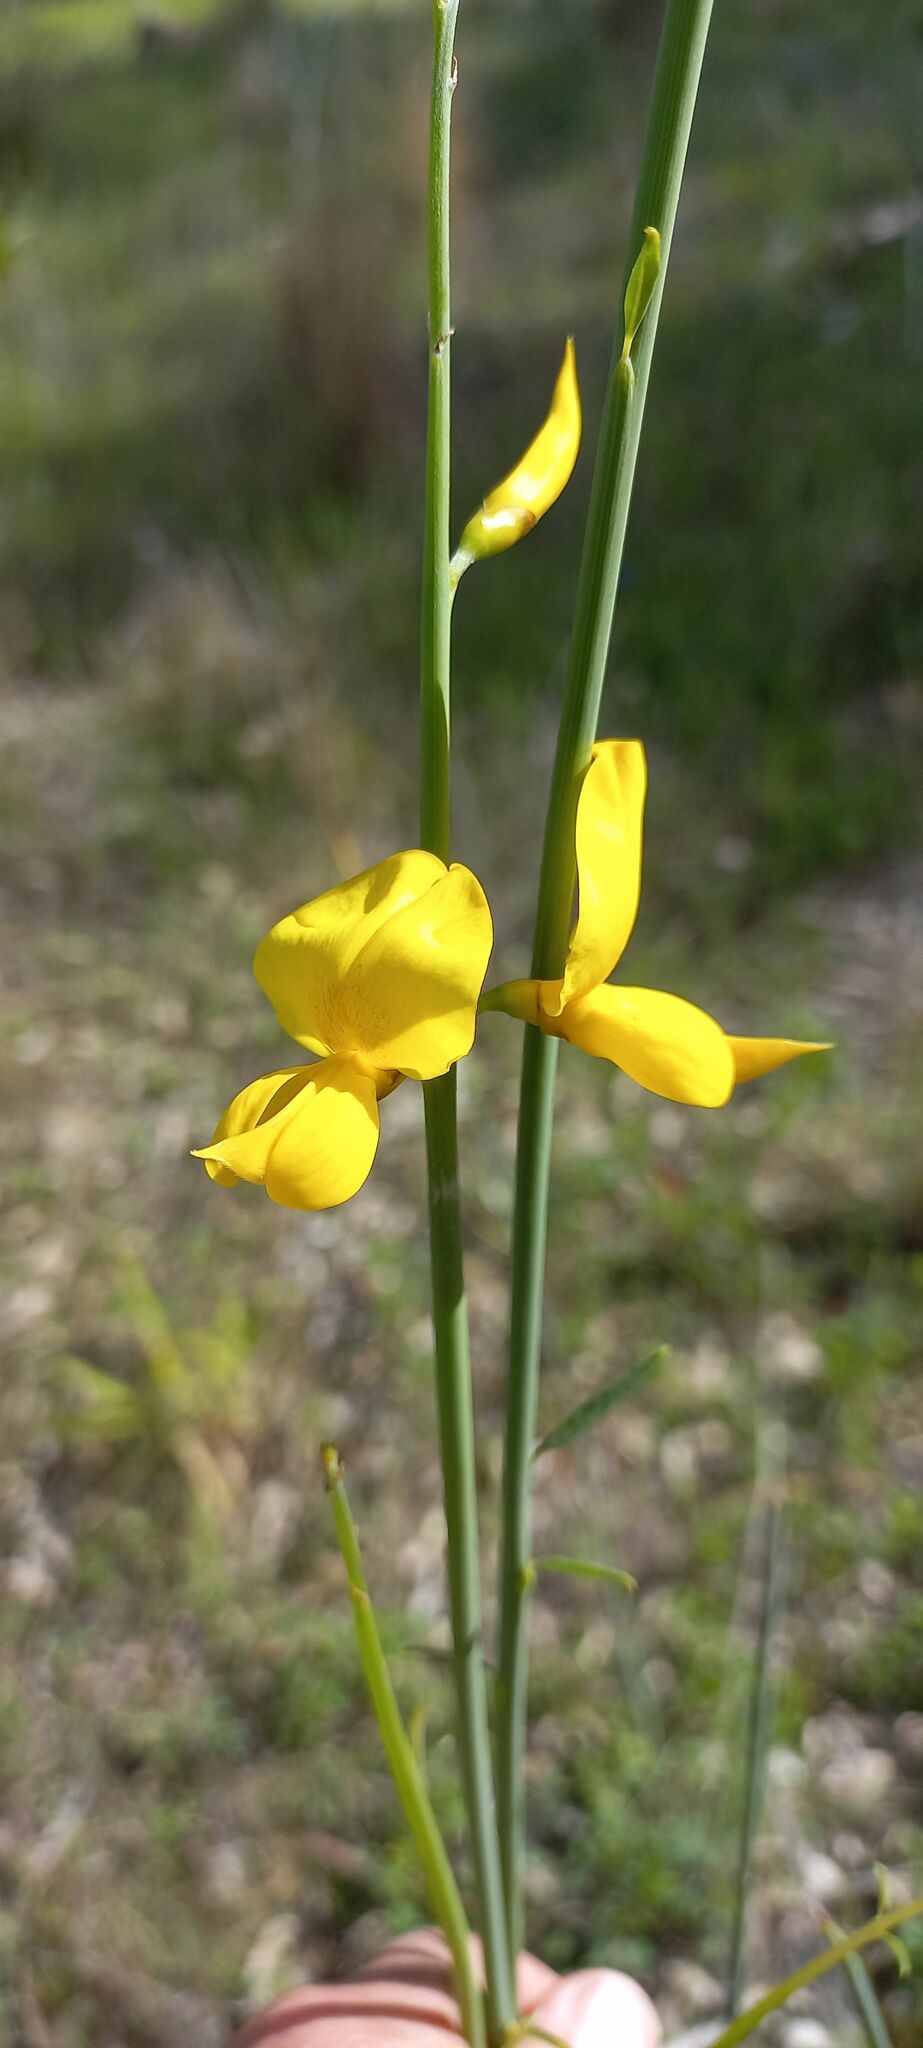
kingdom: Plantae
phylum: Tracheophyta
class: Magnoliopsida
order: Fabales
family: Fabaceae
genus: Spartium
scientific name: Spartium junceum
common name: Spanish broom
